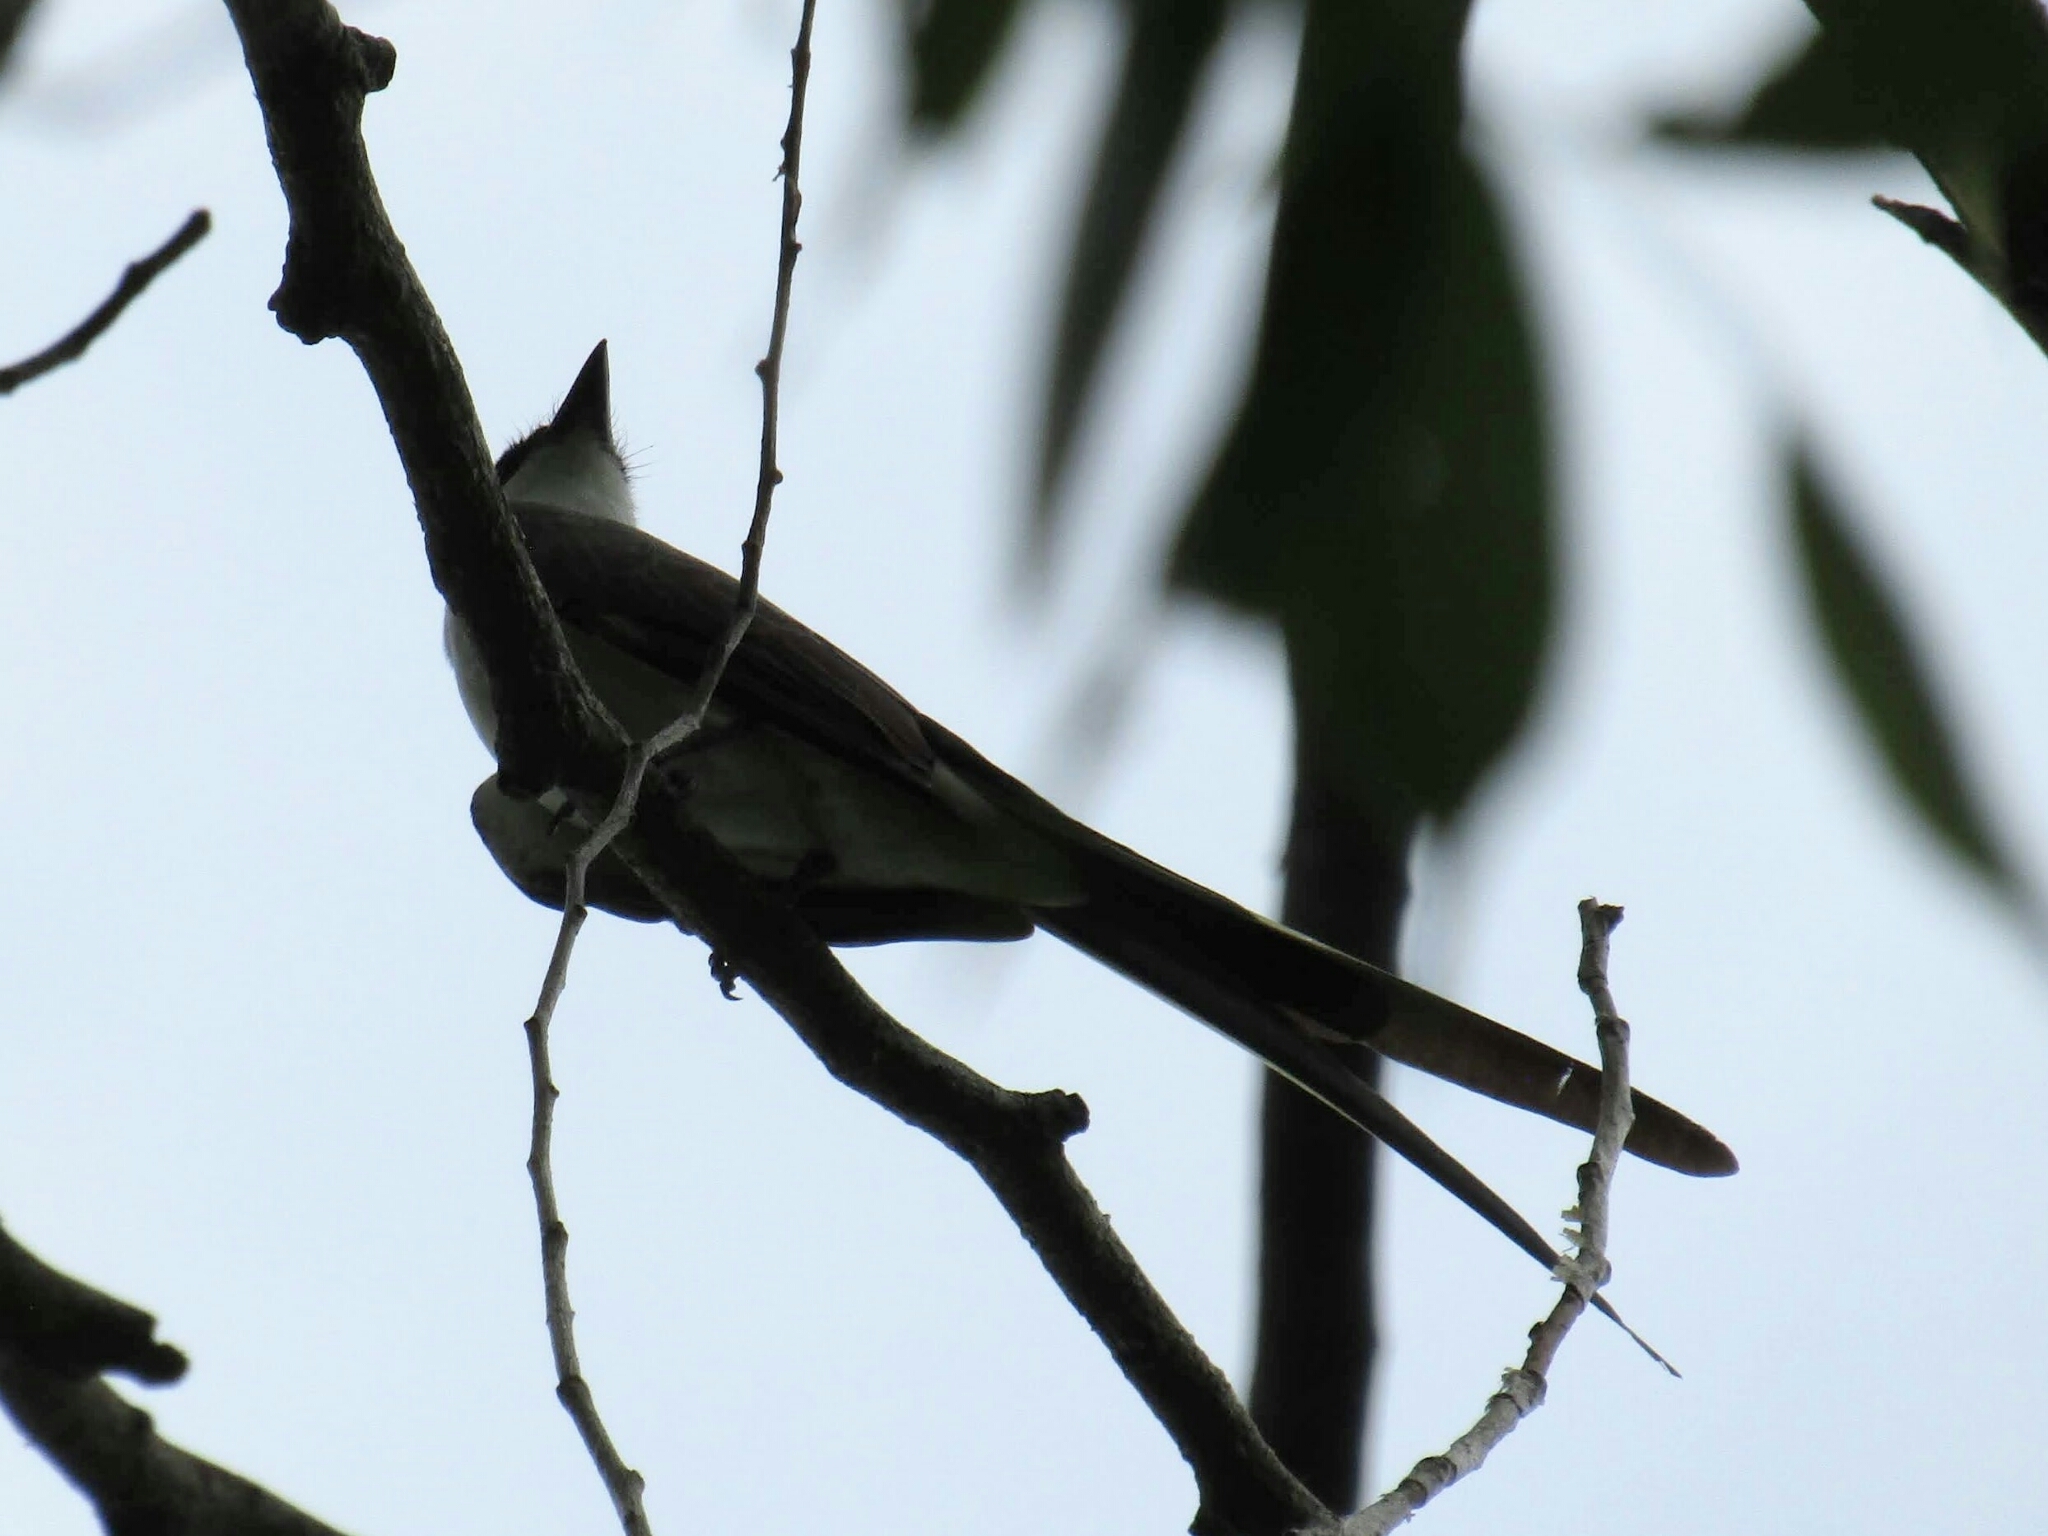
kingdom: Animalia
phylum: Chordata
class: Aves
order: Passeriformes
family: Tyrannidae
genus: Tyrannus
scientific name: Tyrannus savana
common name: Fork-tailed flycatcher
